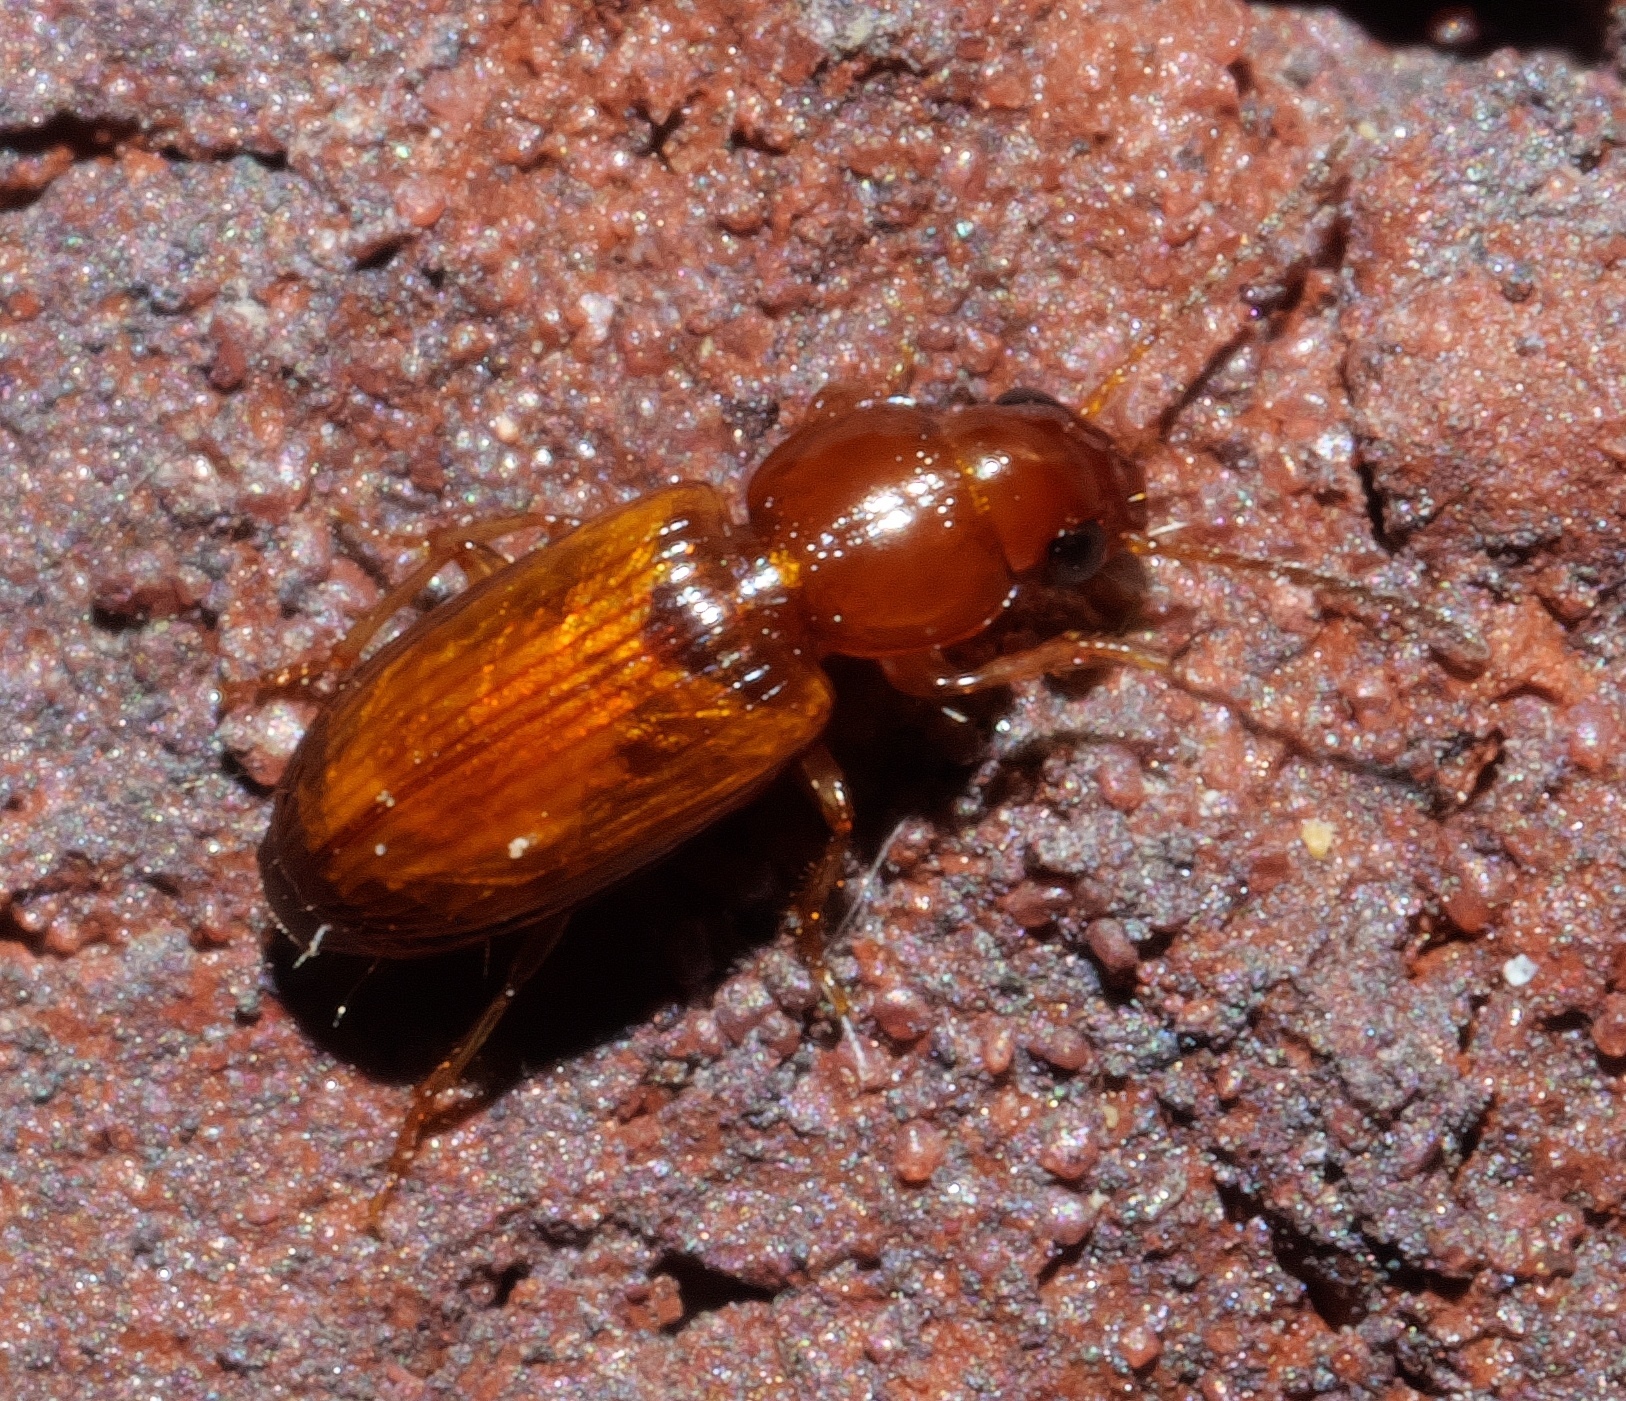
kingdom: Animalia
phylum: Arthropoda
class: Insecta
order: Coleoptera
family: Carabidae
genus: Acupalpus
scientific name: Acupalpus testaceus
